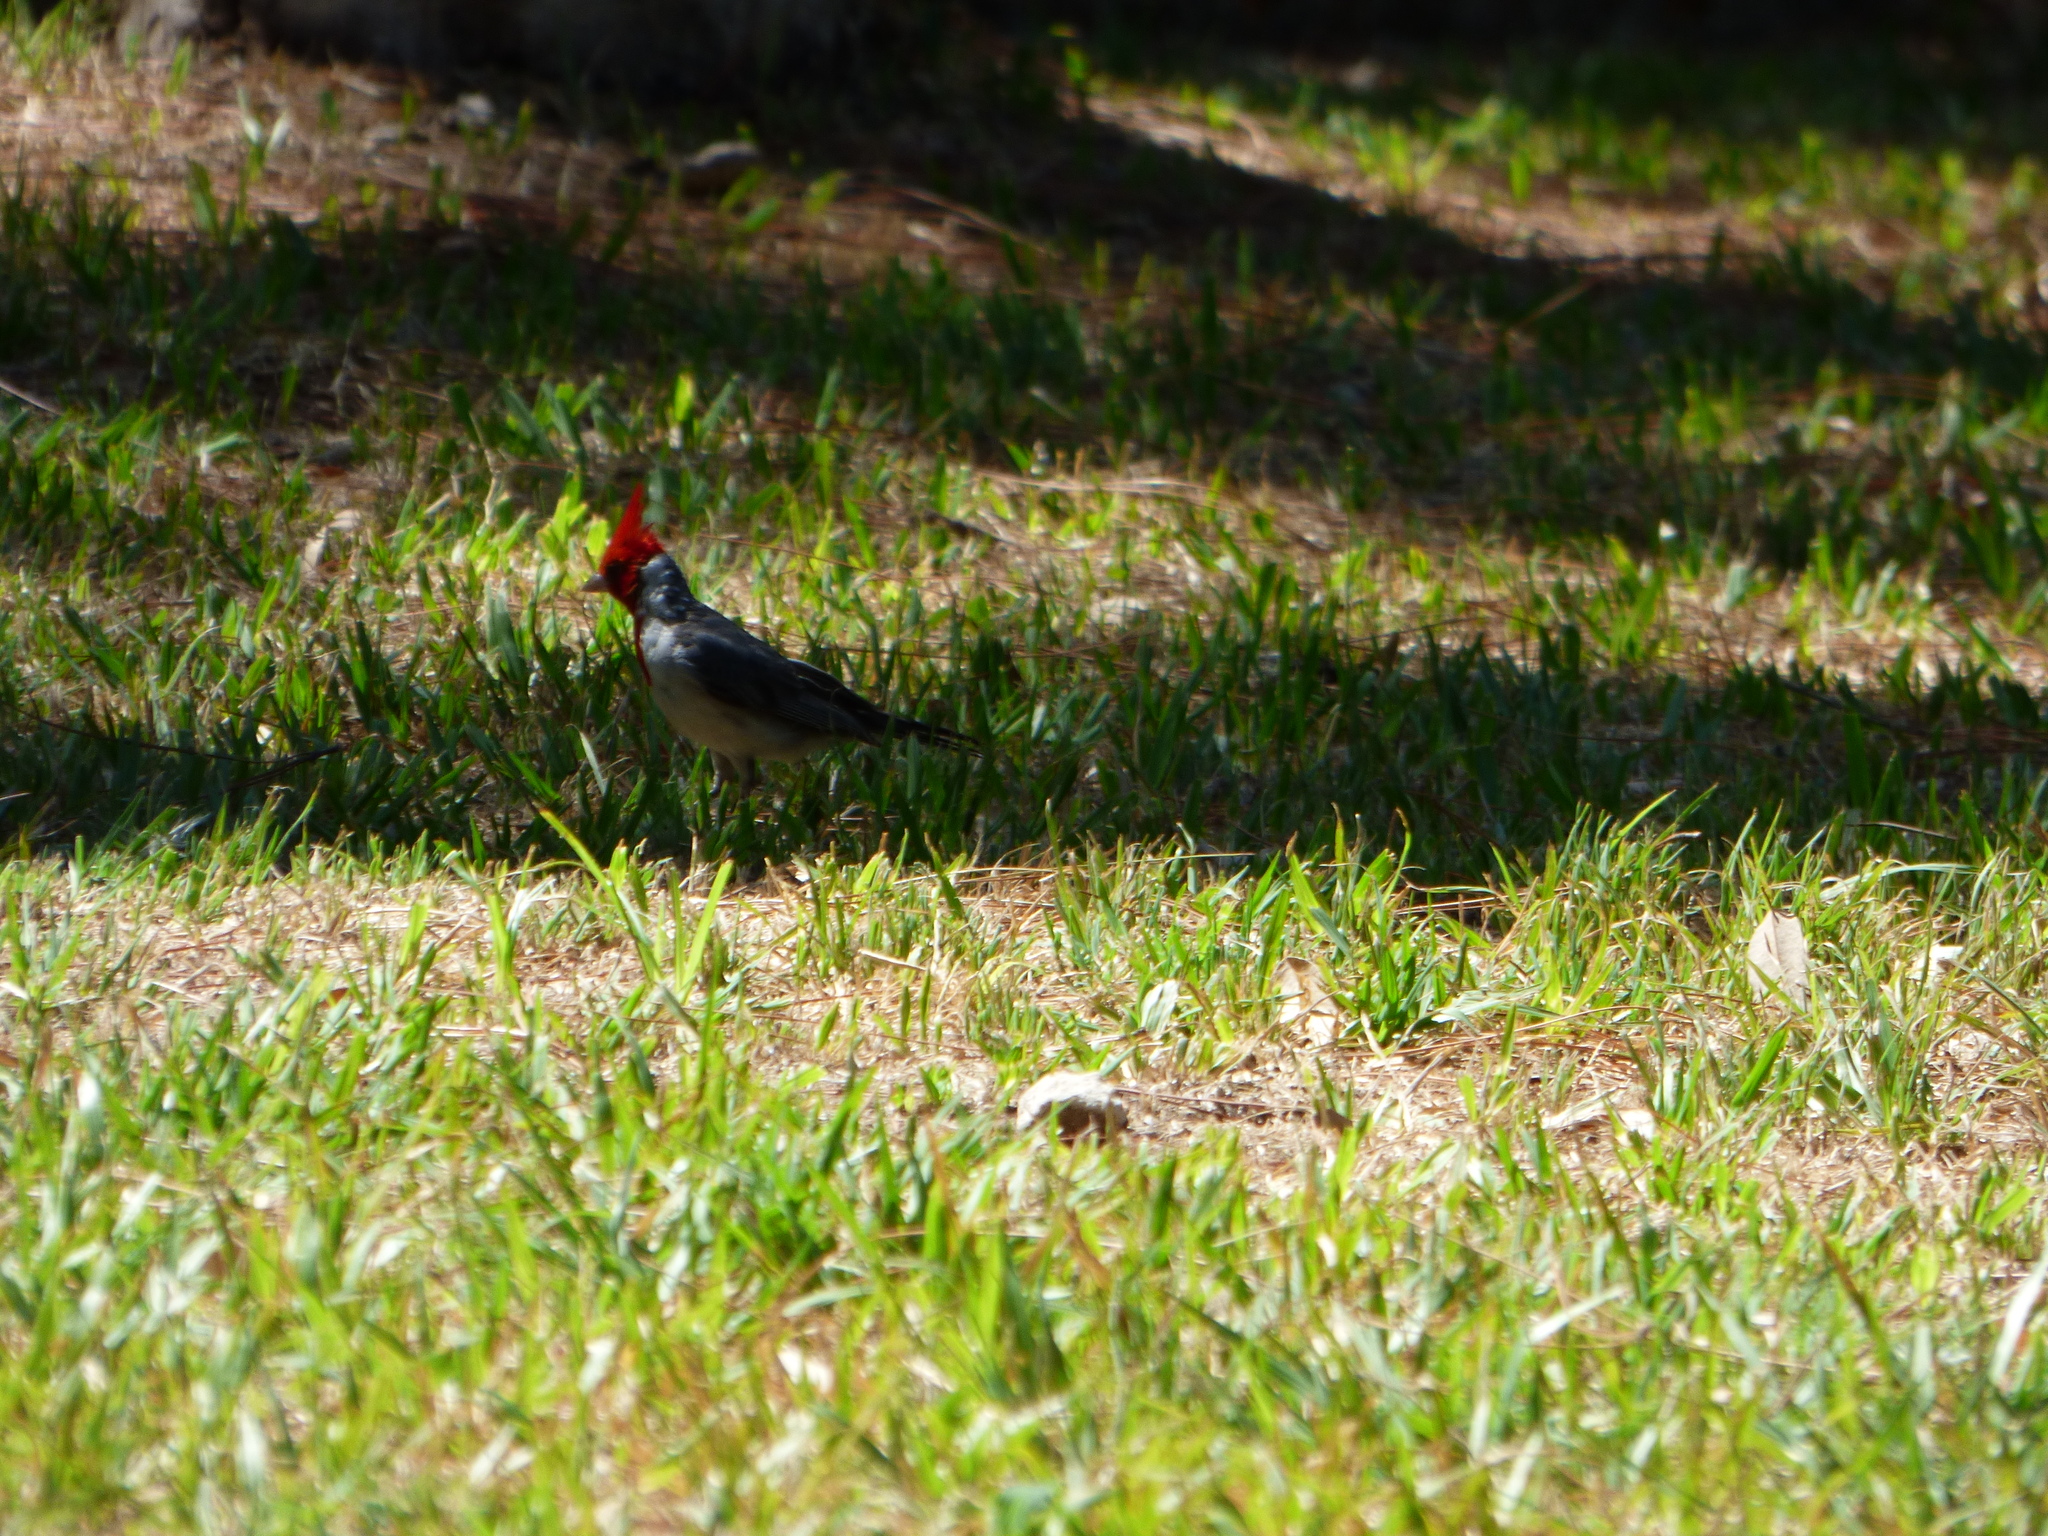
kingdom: Animalia
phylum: Chordata
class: Aves
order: Passeriformes
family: Thraupidae
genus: Paroaria
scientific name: Paroaria coronata
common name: Red-crested cardinal
